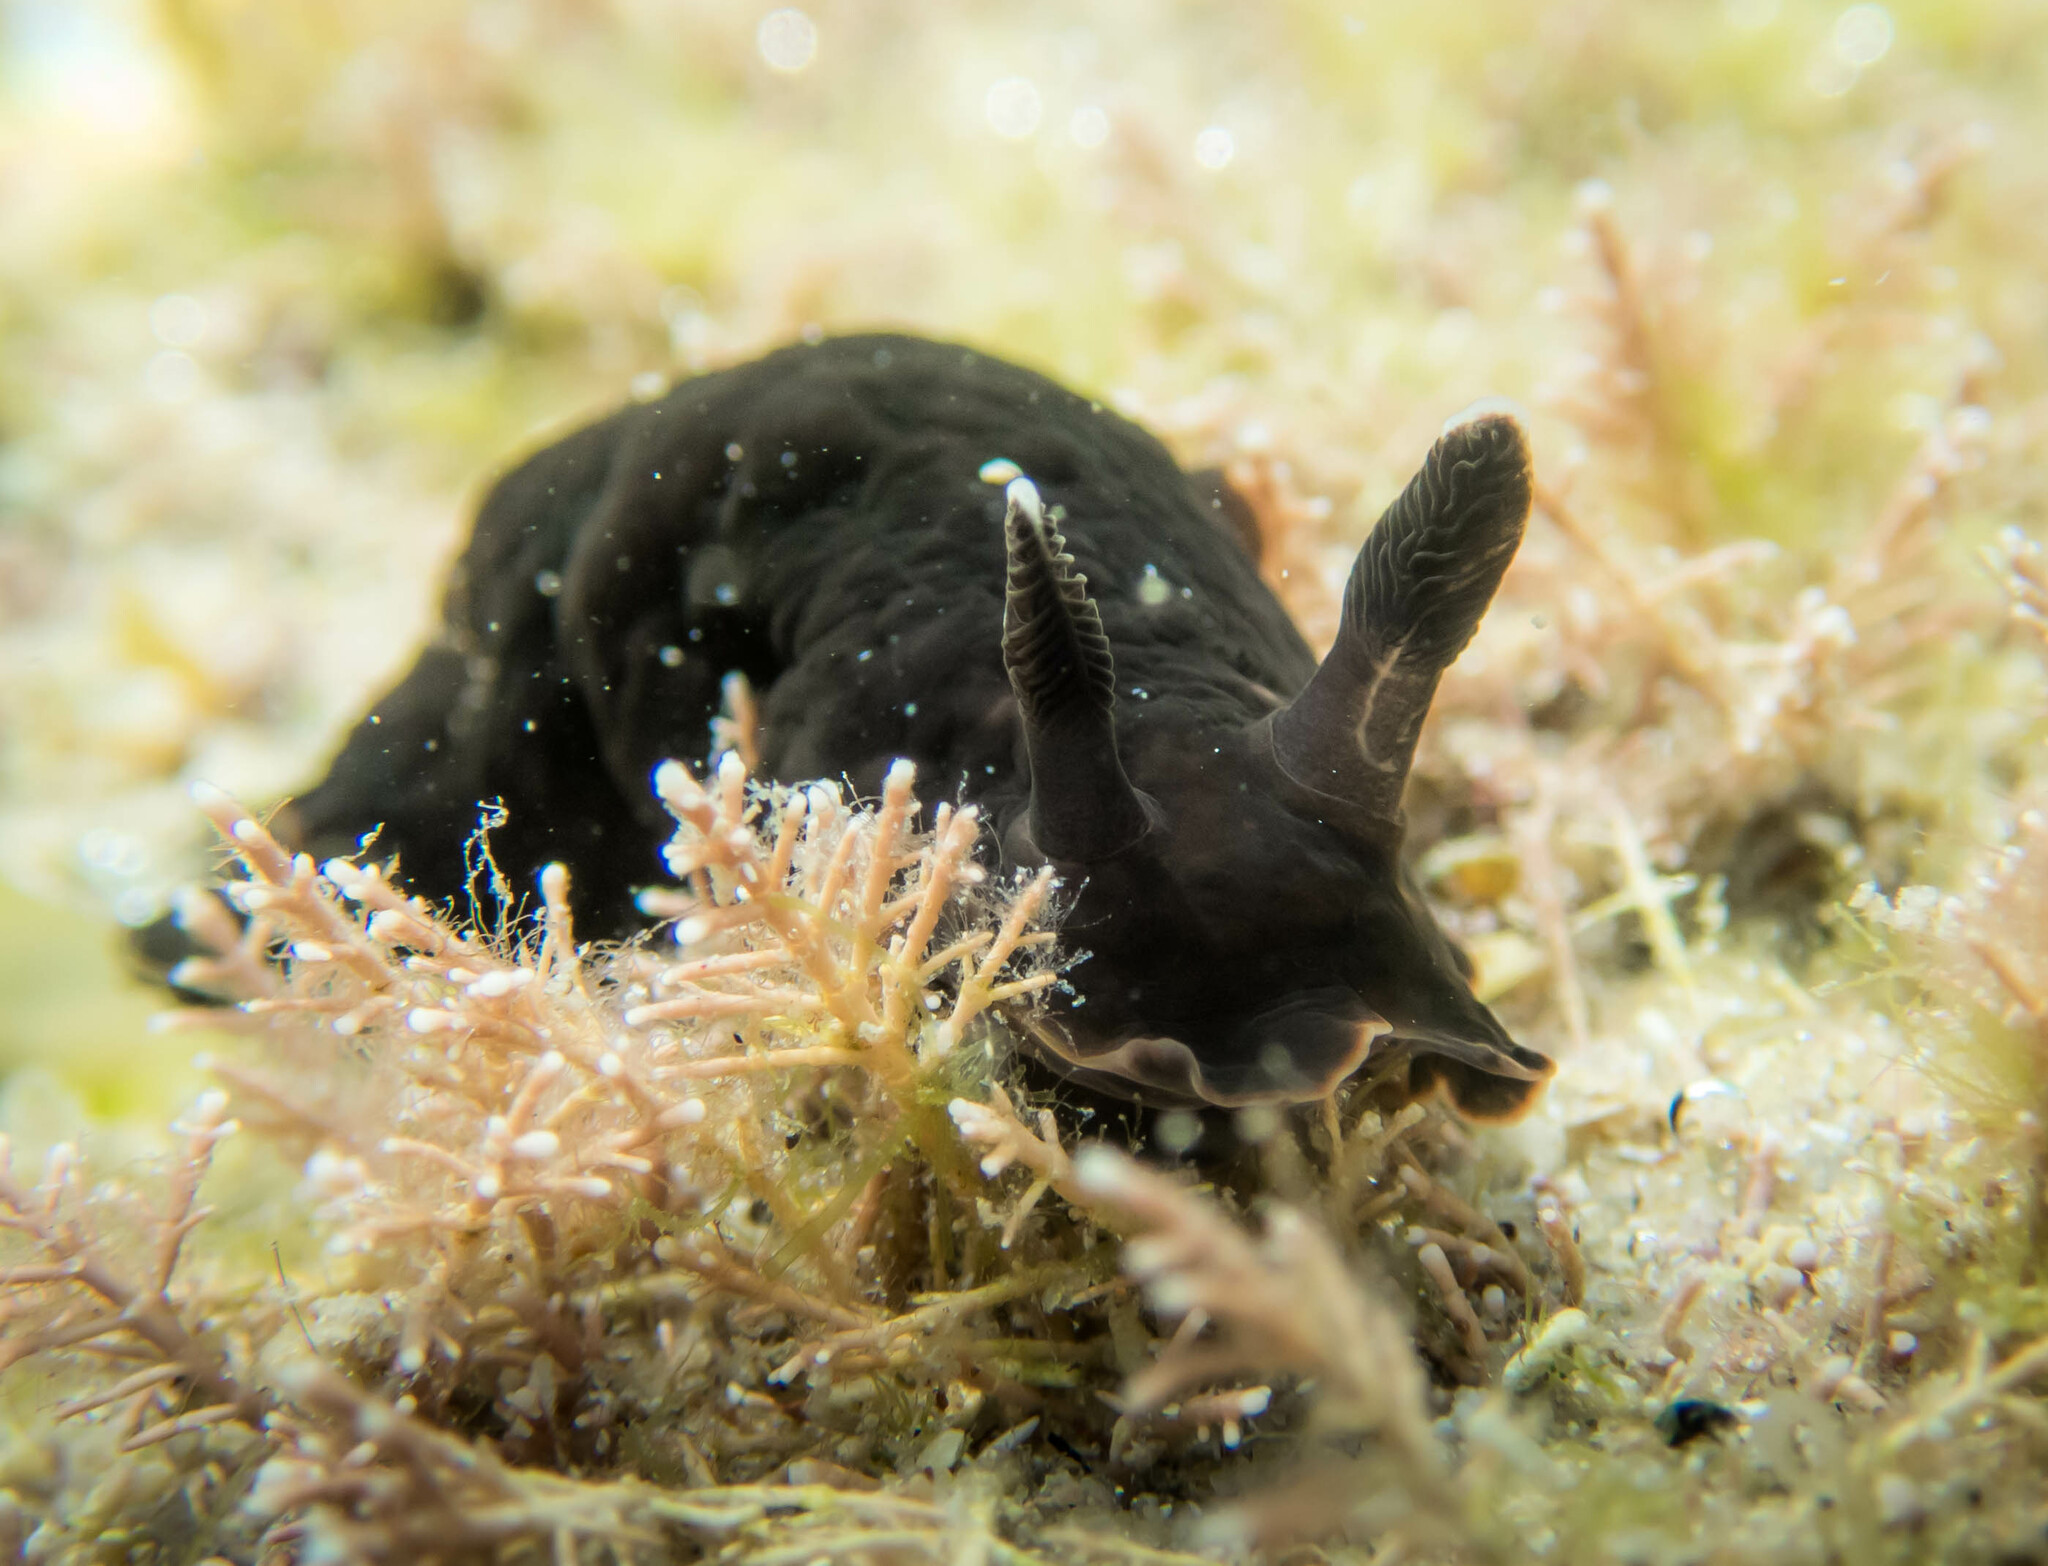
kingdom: Animalia
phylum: Mollusca
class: Gastropoda
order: Nudibranchia
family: Dendrodorididae
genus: Dendrodoris
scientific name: Dendrodoris nigra
